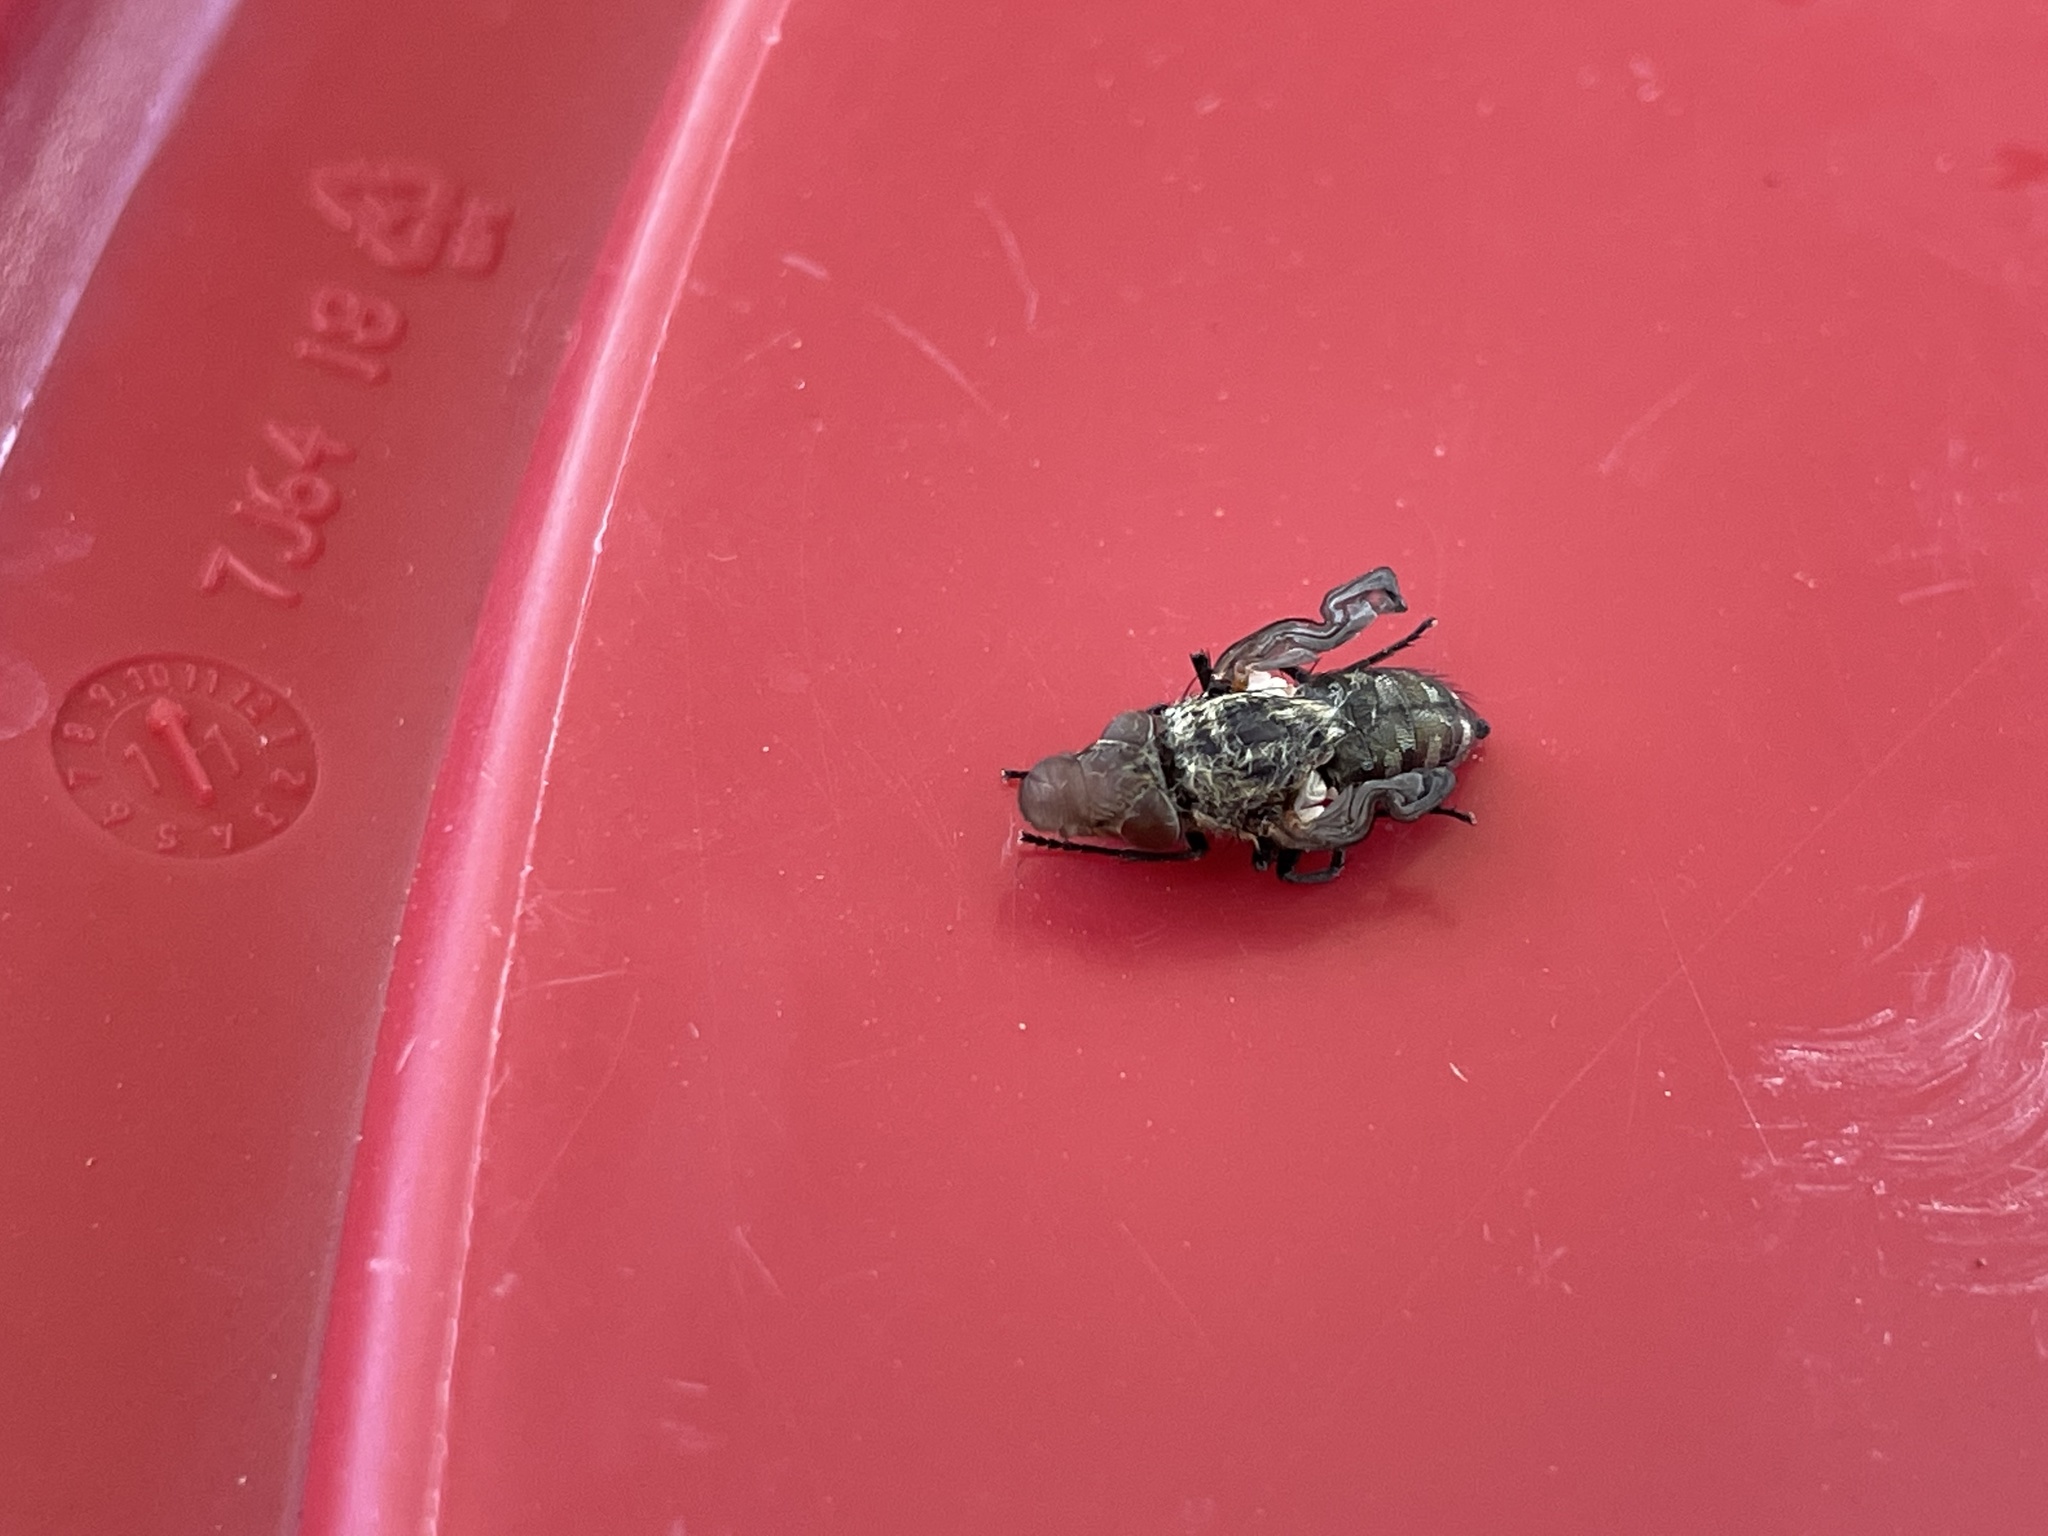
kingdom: Animalia
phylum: Arthropoda
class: Insecta
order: Diptera
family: Polleniidae
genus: Pollenia
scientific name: Pollenia
